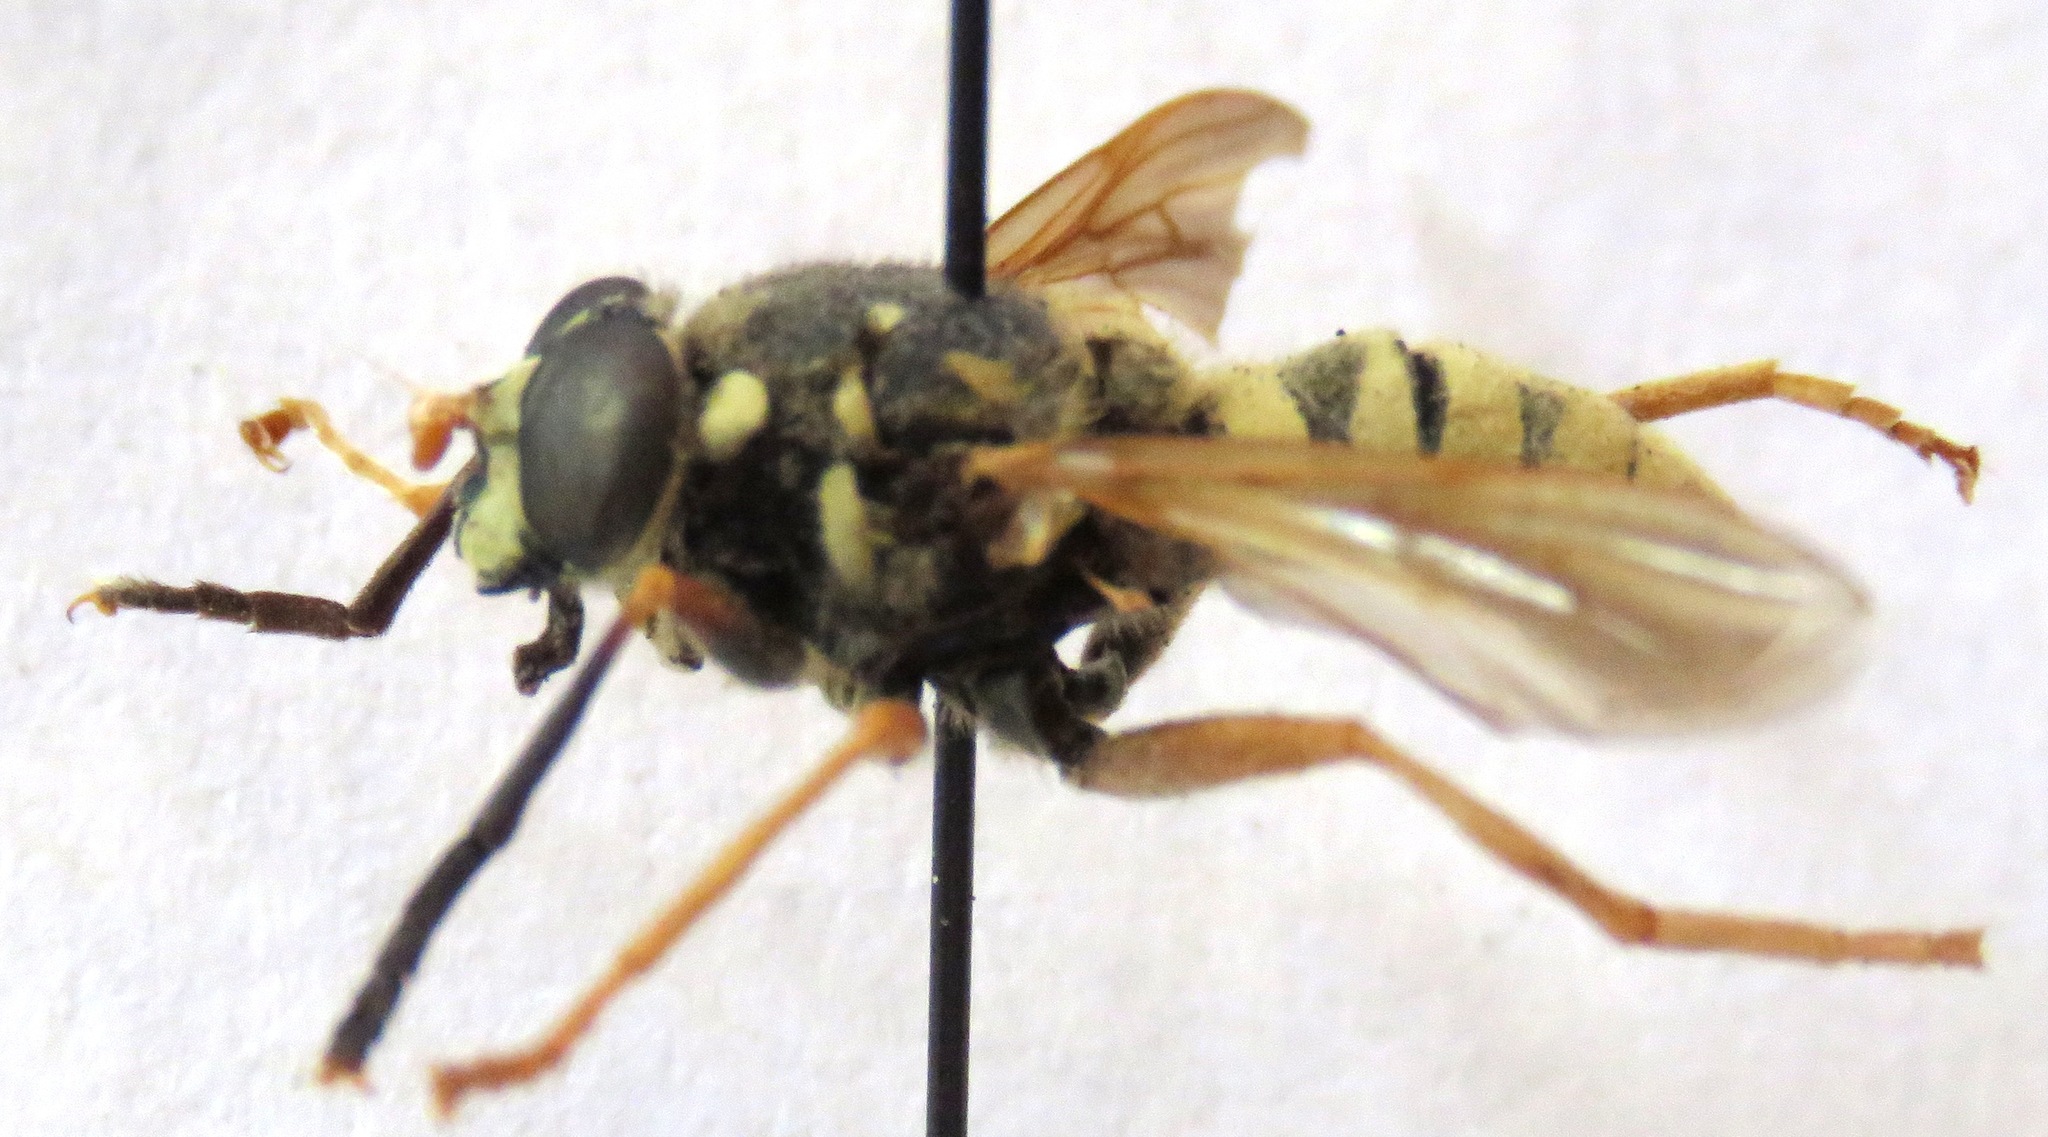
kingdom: Animalia
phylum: Arthropoda
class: Insecta
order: Diptera
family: Syrphidae
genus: Temnostoma
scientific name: Temnostoma vespiforme
